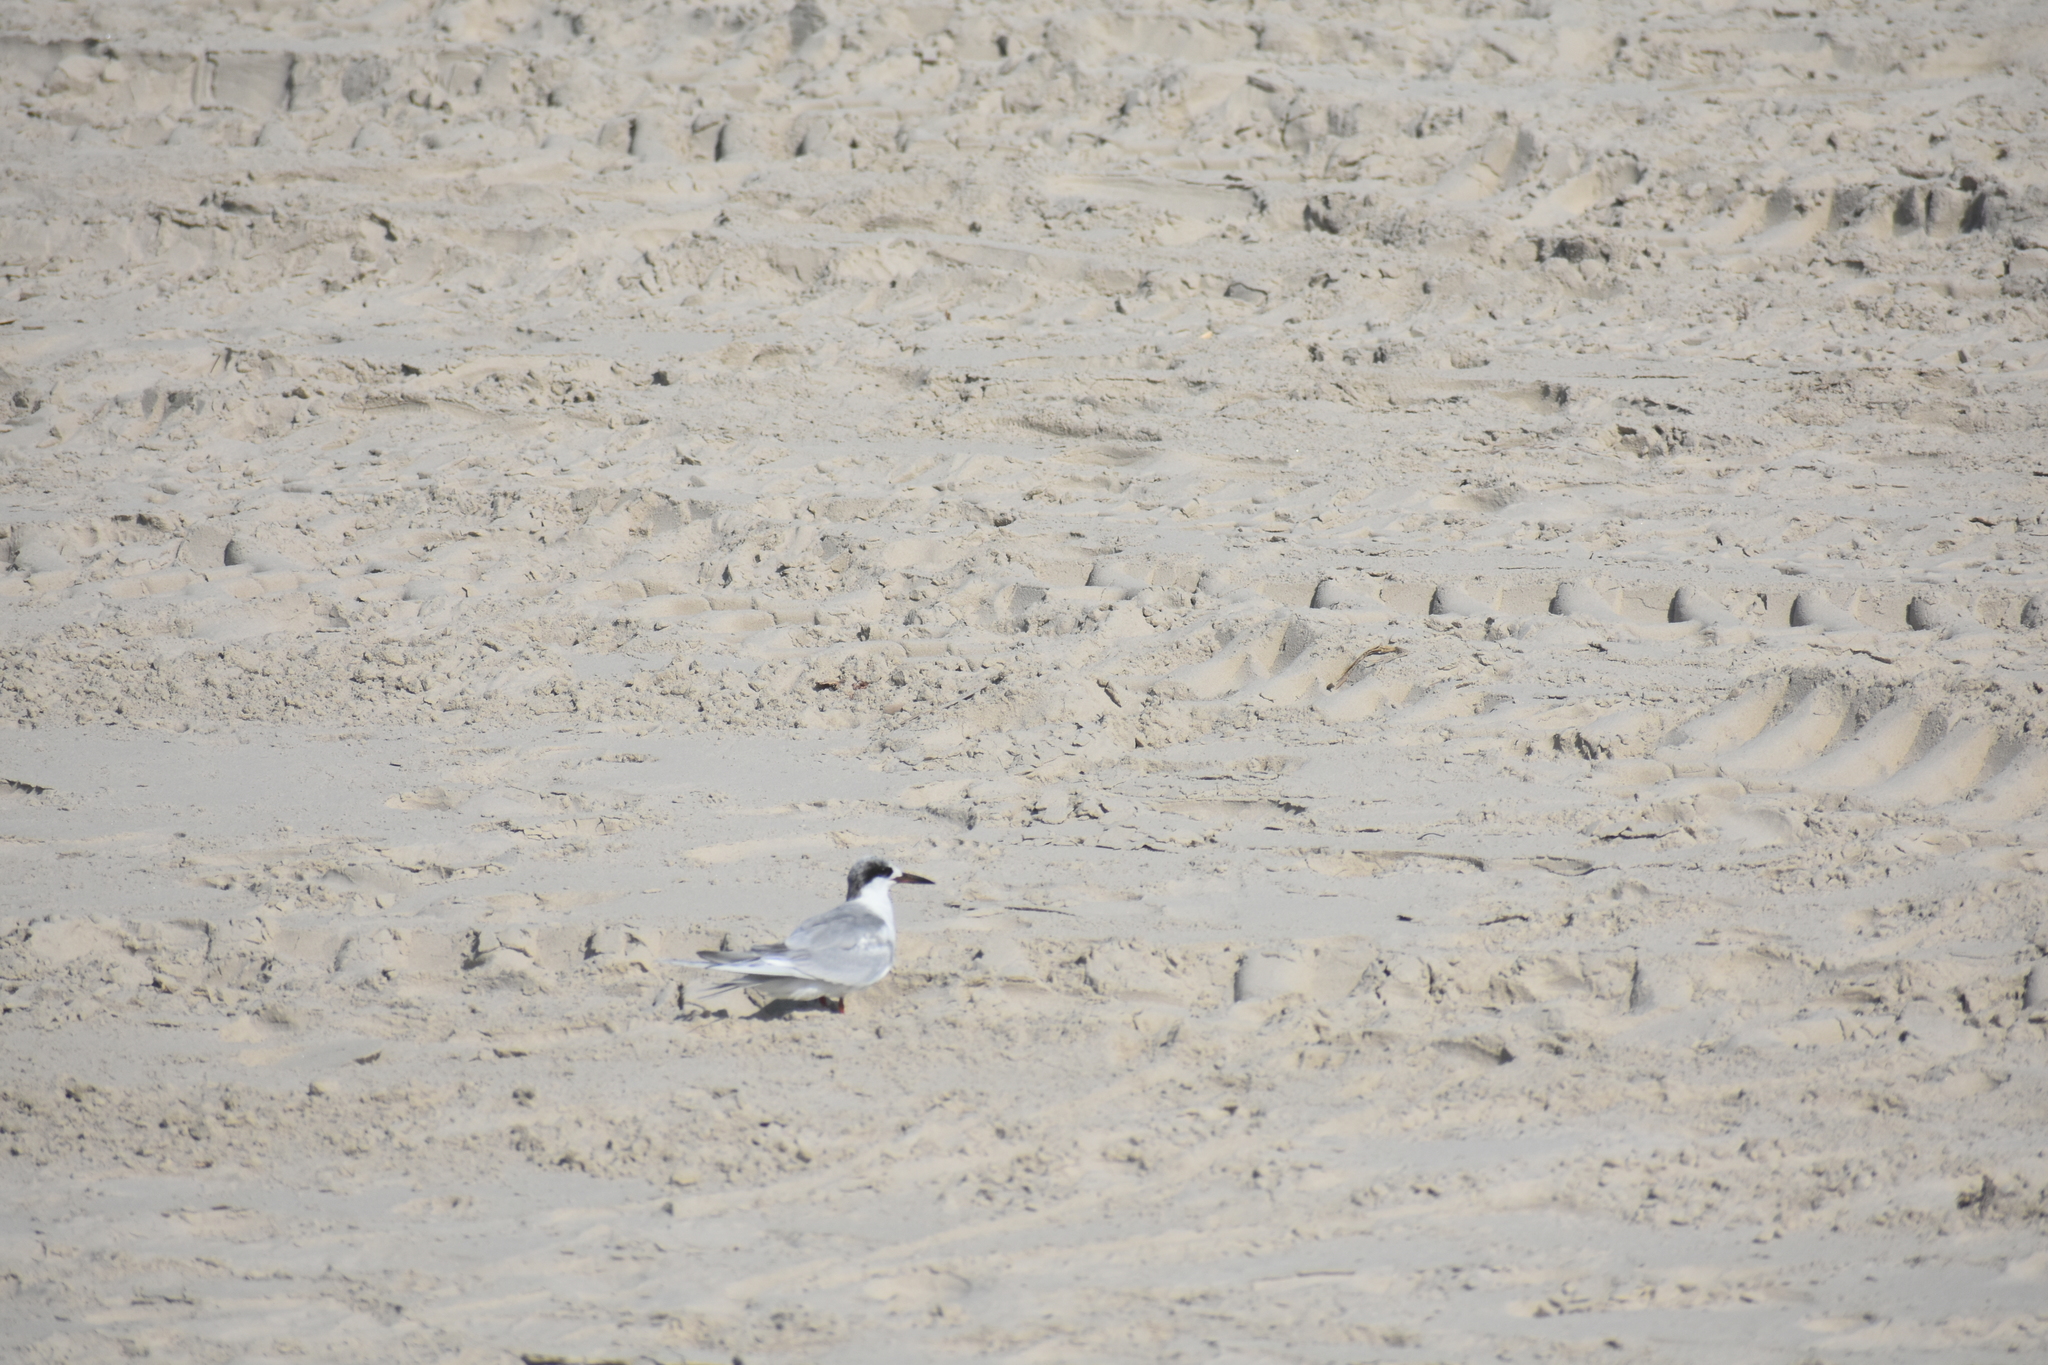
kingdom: Animalia
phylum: Chordata
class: Aves
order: Charadriiformes
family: Laridae
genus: Sterna
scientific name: Sterna forsteri
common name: Forster's tern
